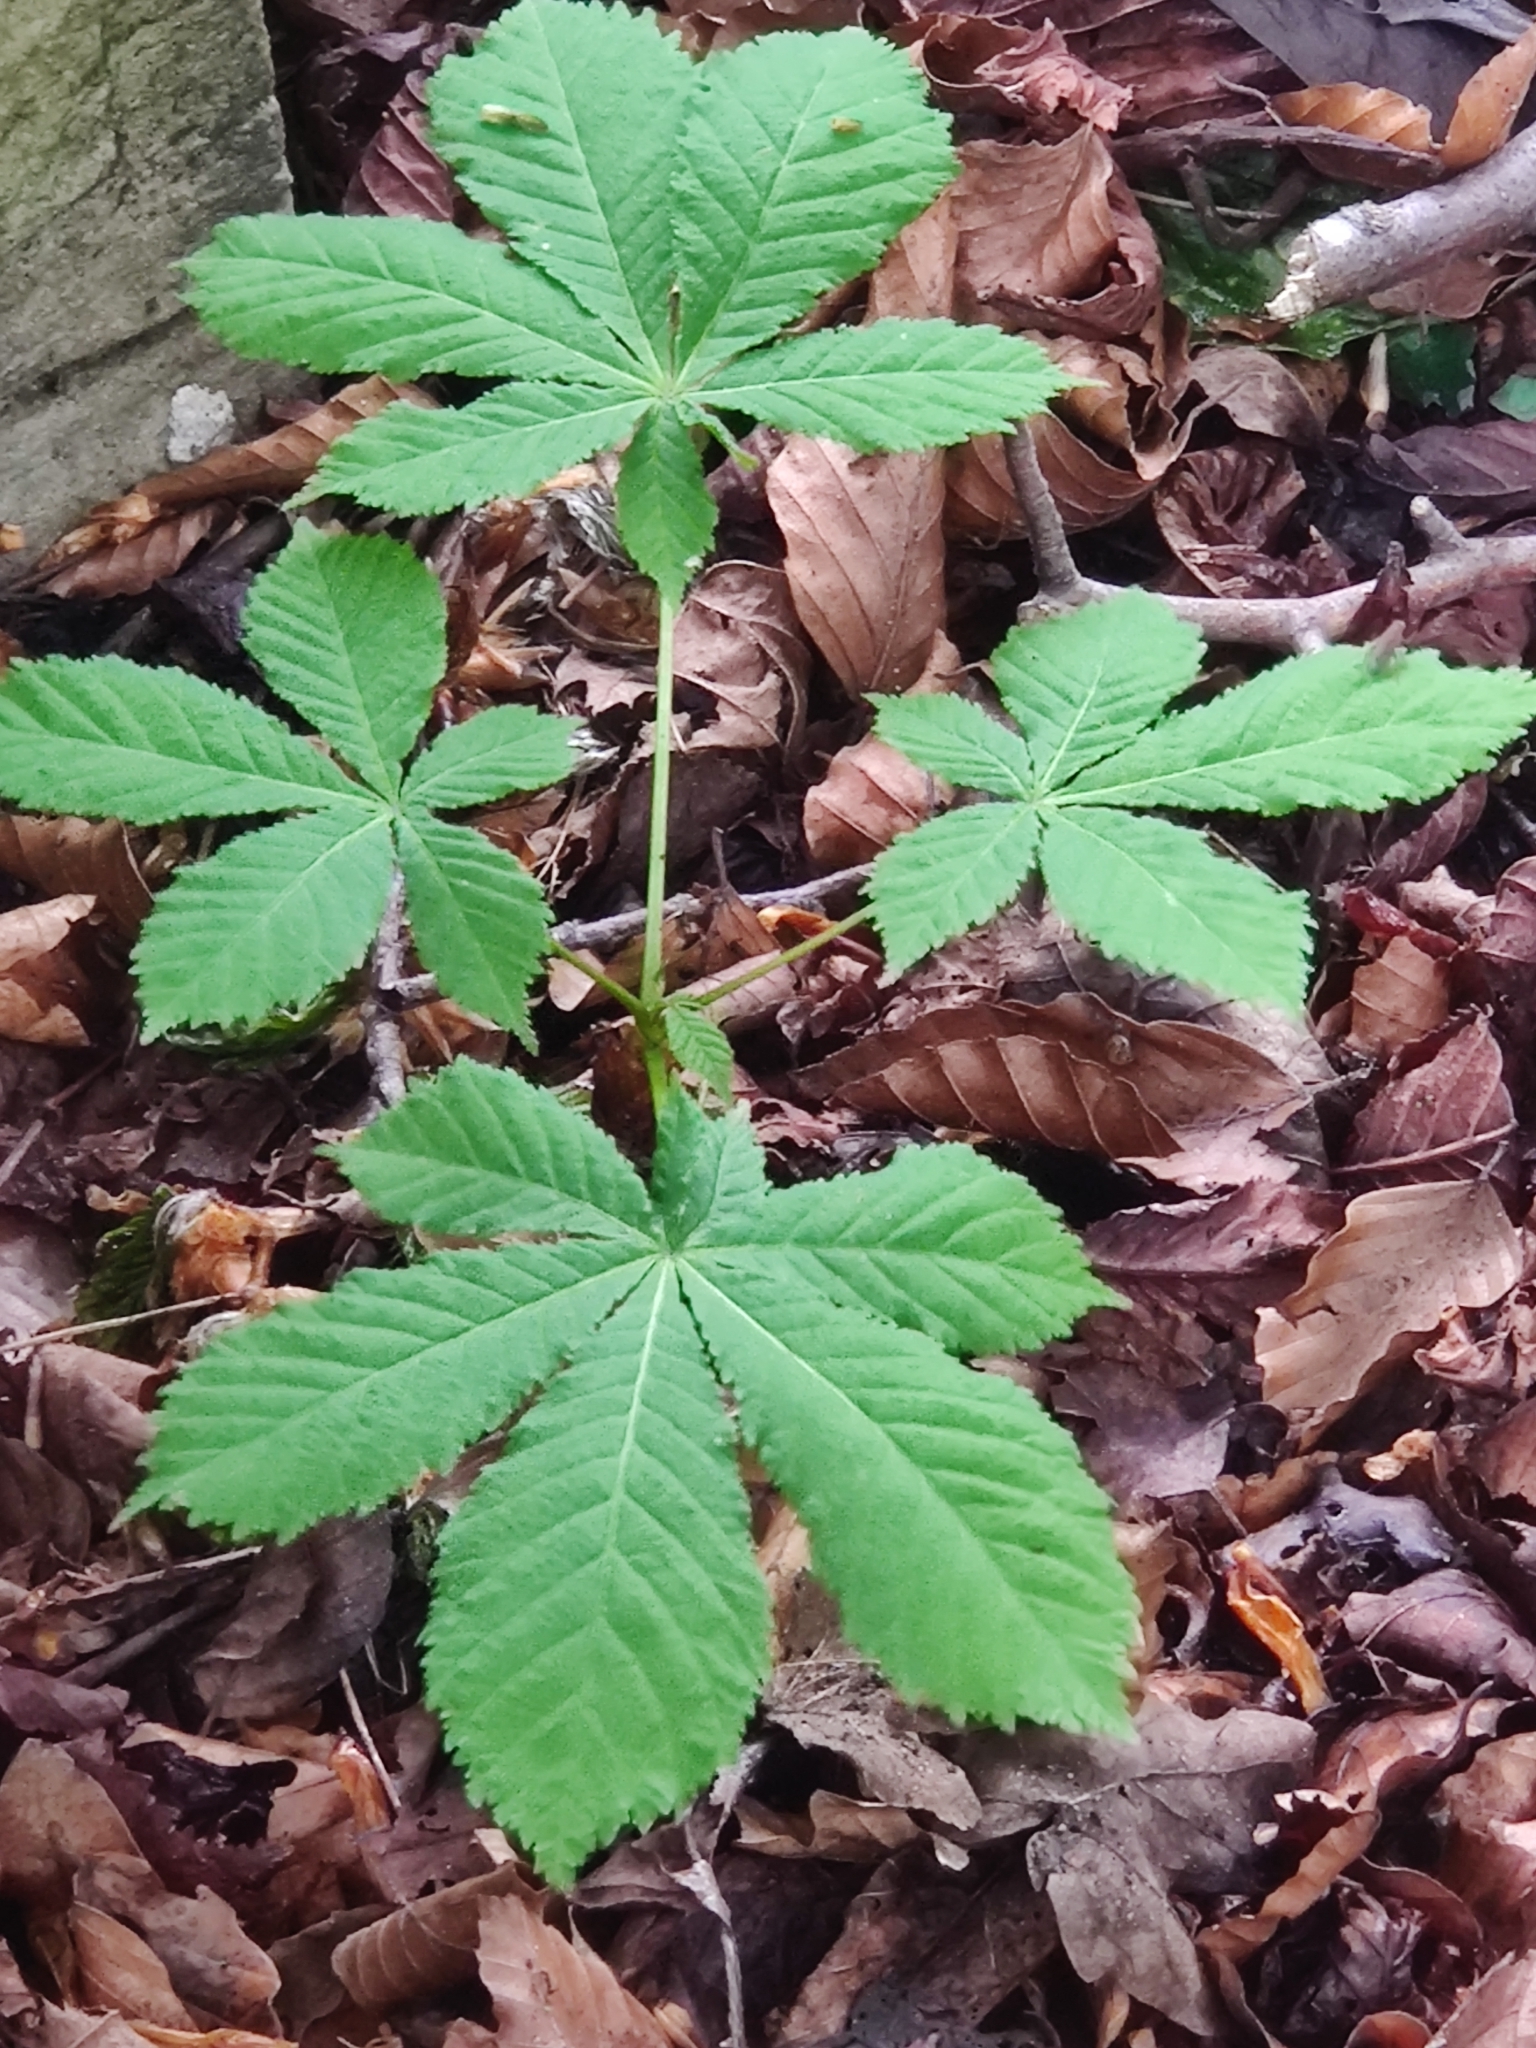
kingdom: Plantae
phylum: Tracheophyta
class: Magnoliopsida
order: Sapindales
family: Sapindaceae
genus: Aesculus
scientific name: Aesculus hippocastanum
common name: Horse-chestnut
